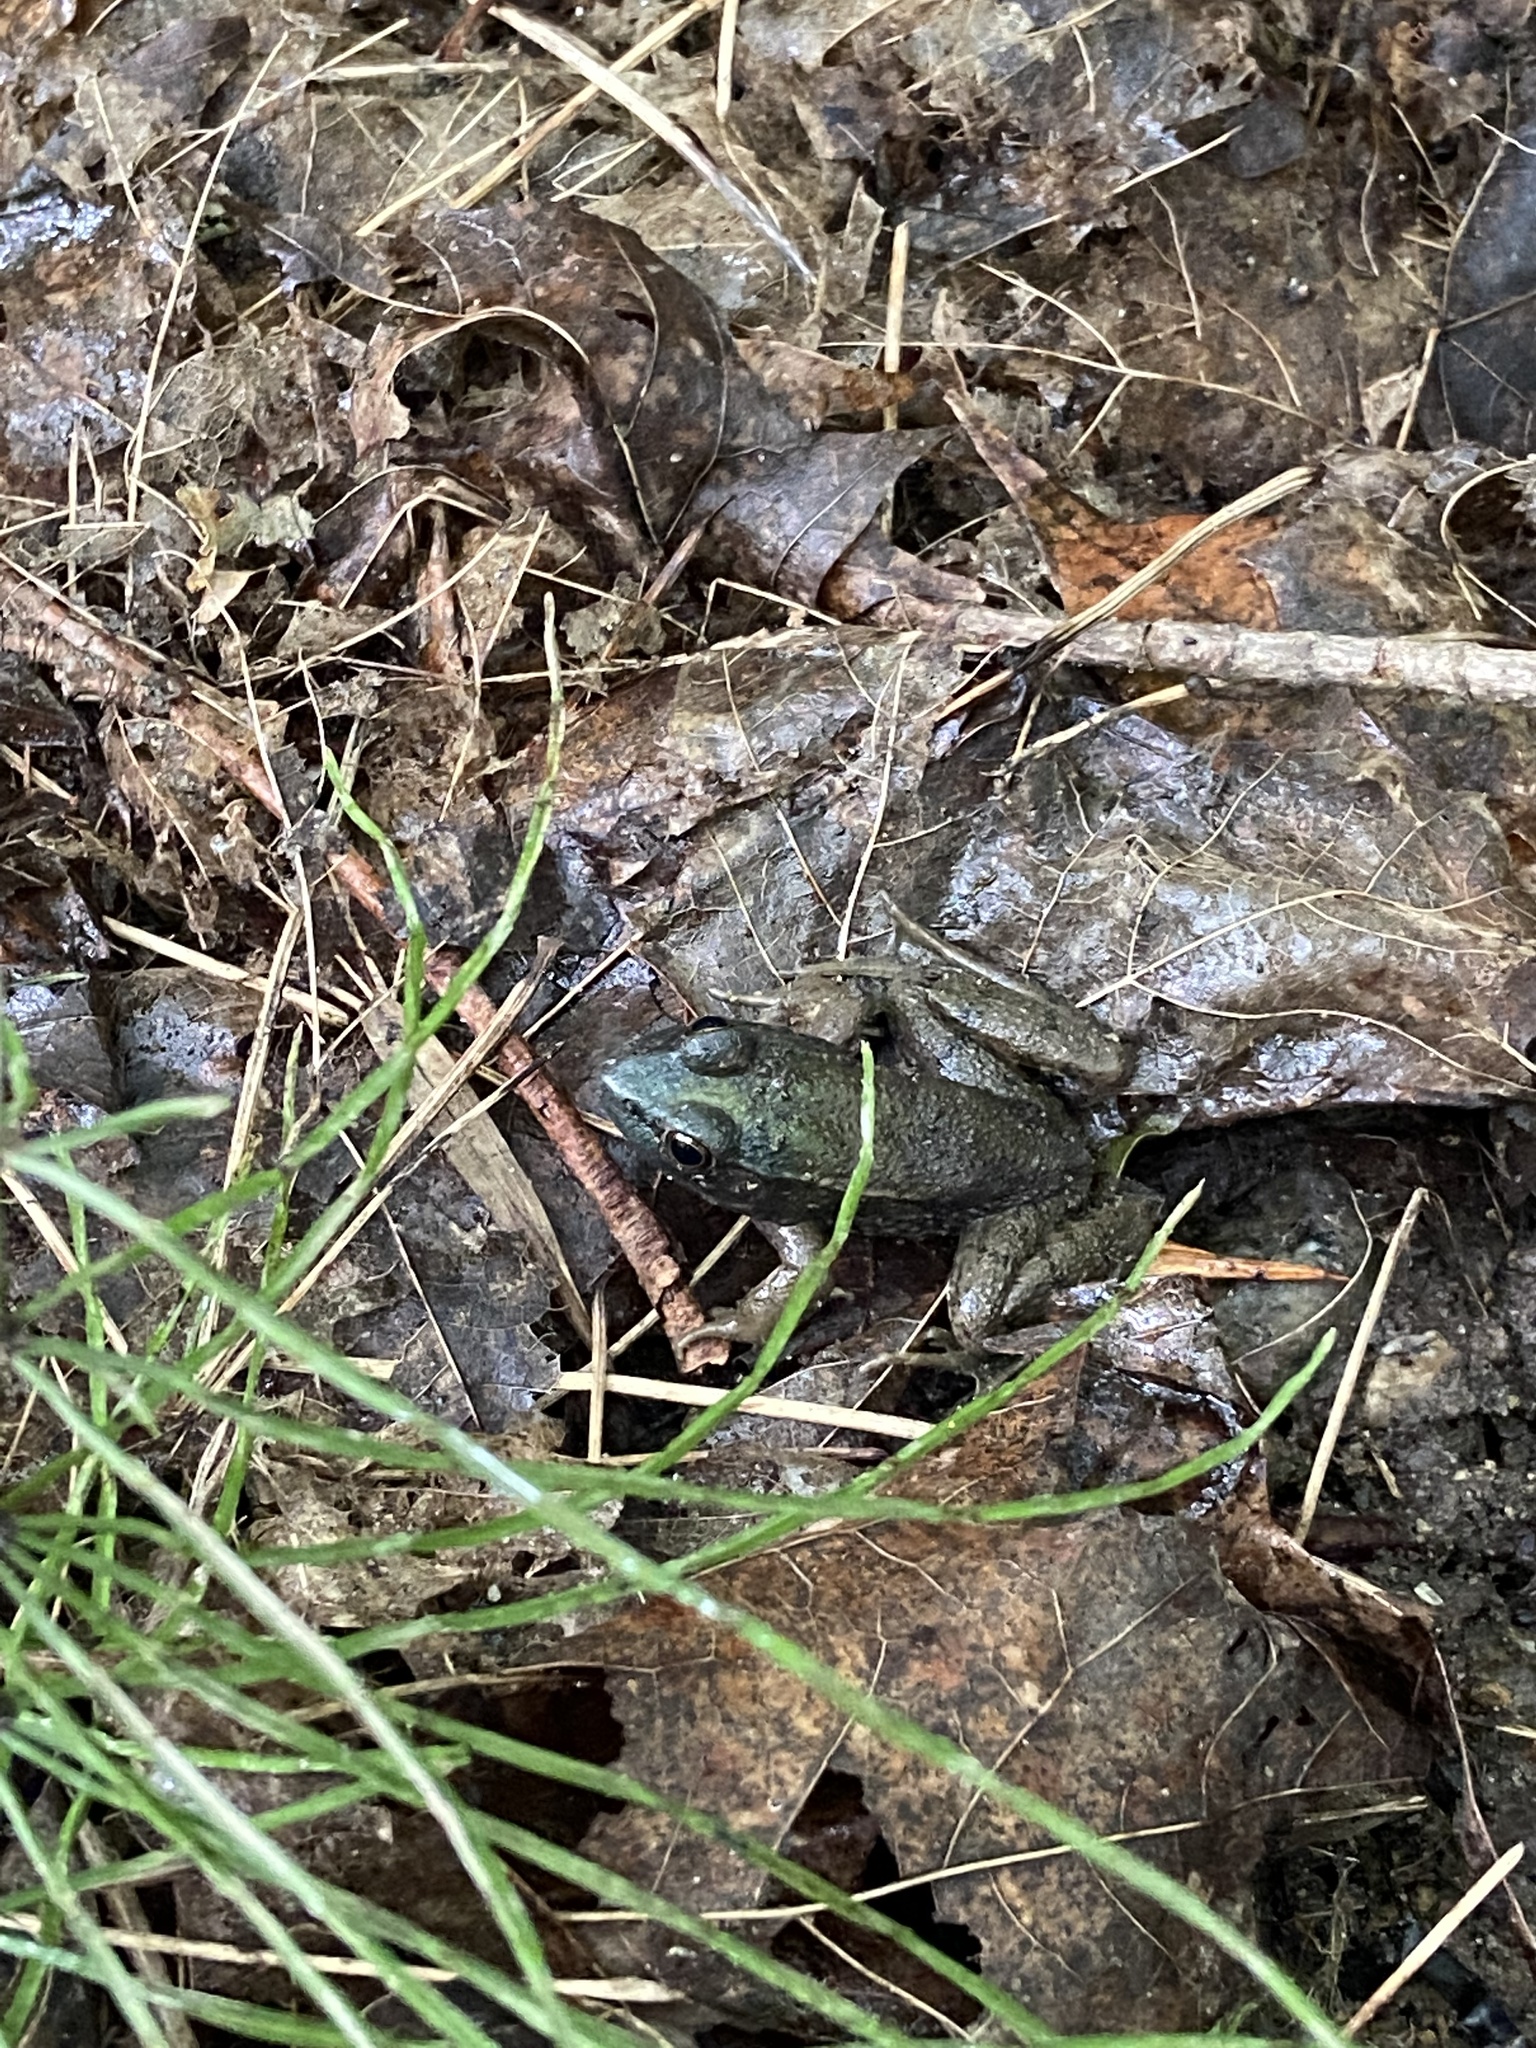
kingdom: Animalia
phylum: Chordata
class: Amphibia
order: Anura
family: Ranidae
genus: Lithobates
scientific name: Lithobates clamitans
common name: Green frog
